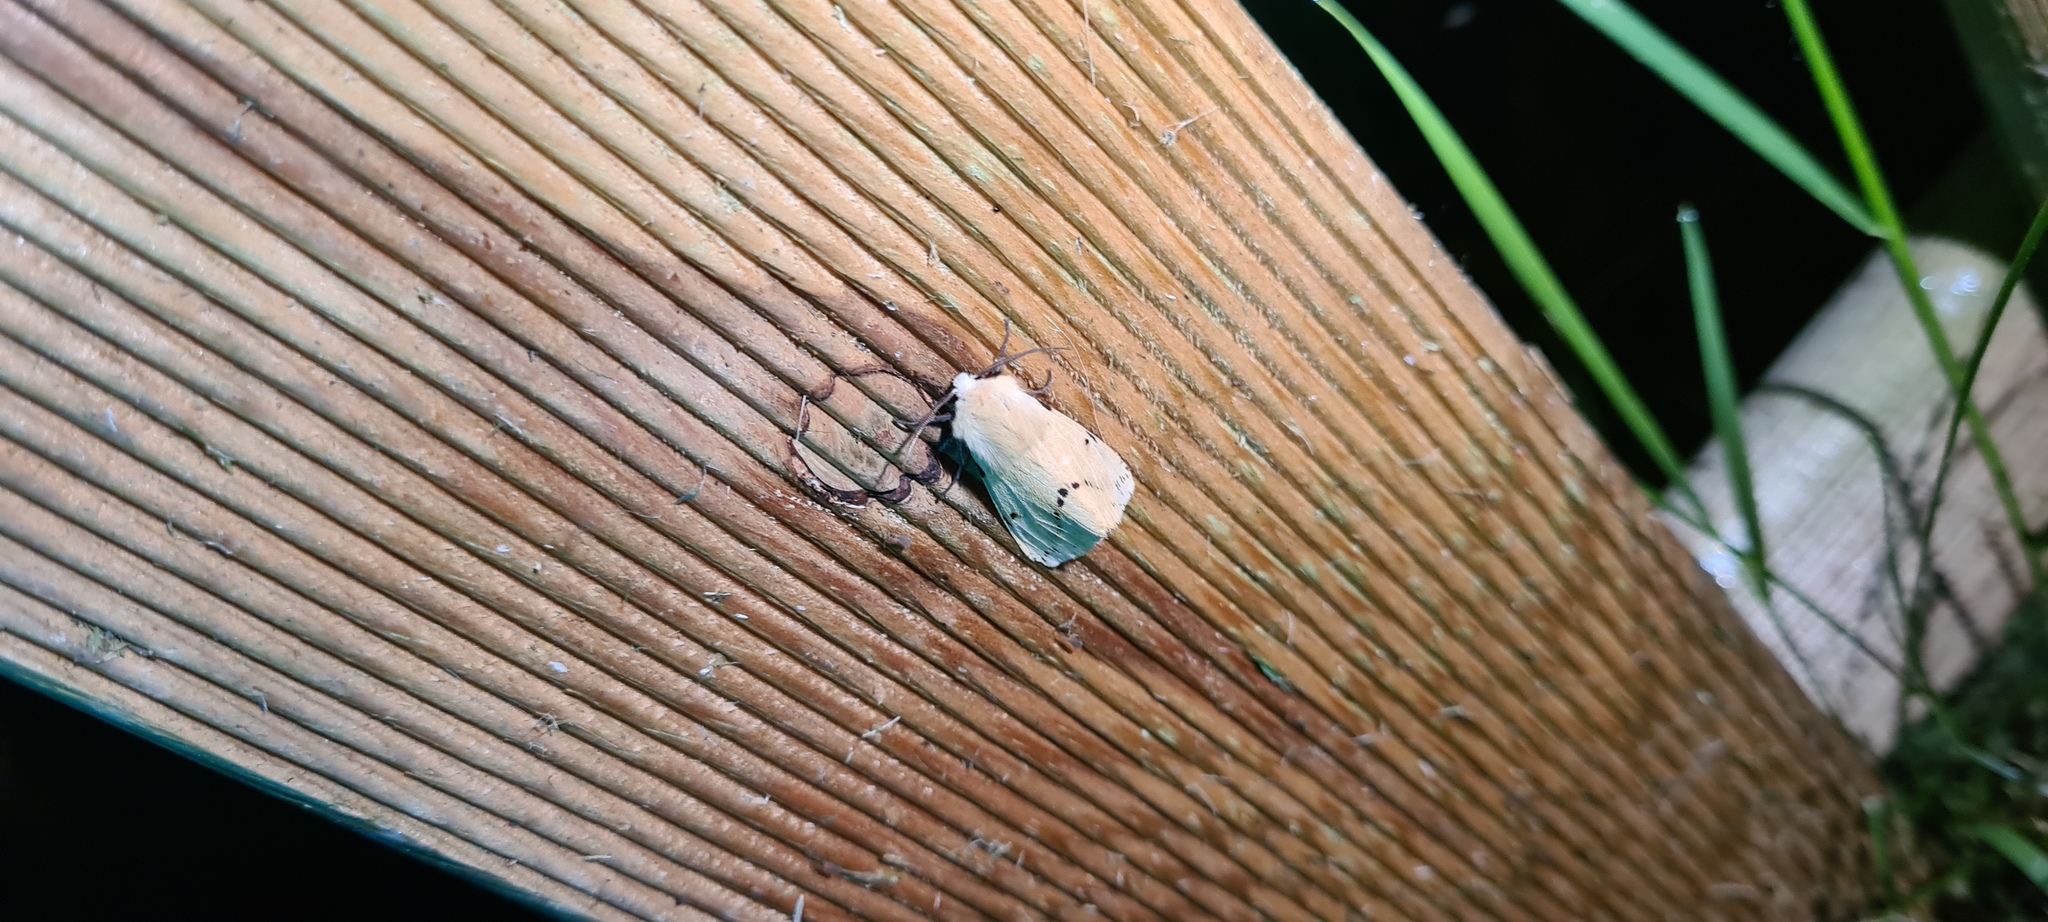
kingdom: Animalia
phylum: Arthropoda
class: Insecta
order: Lepidoptera
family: Erebidae
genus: Spilarctia
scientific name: Spilarctia lutea
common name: Buff ermine
